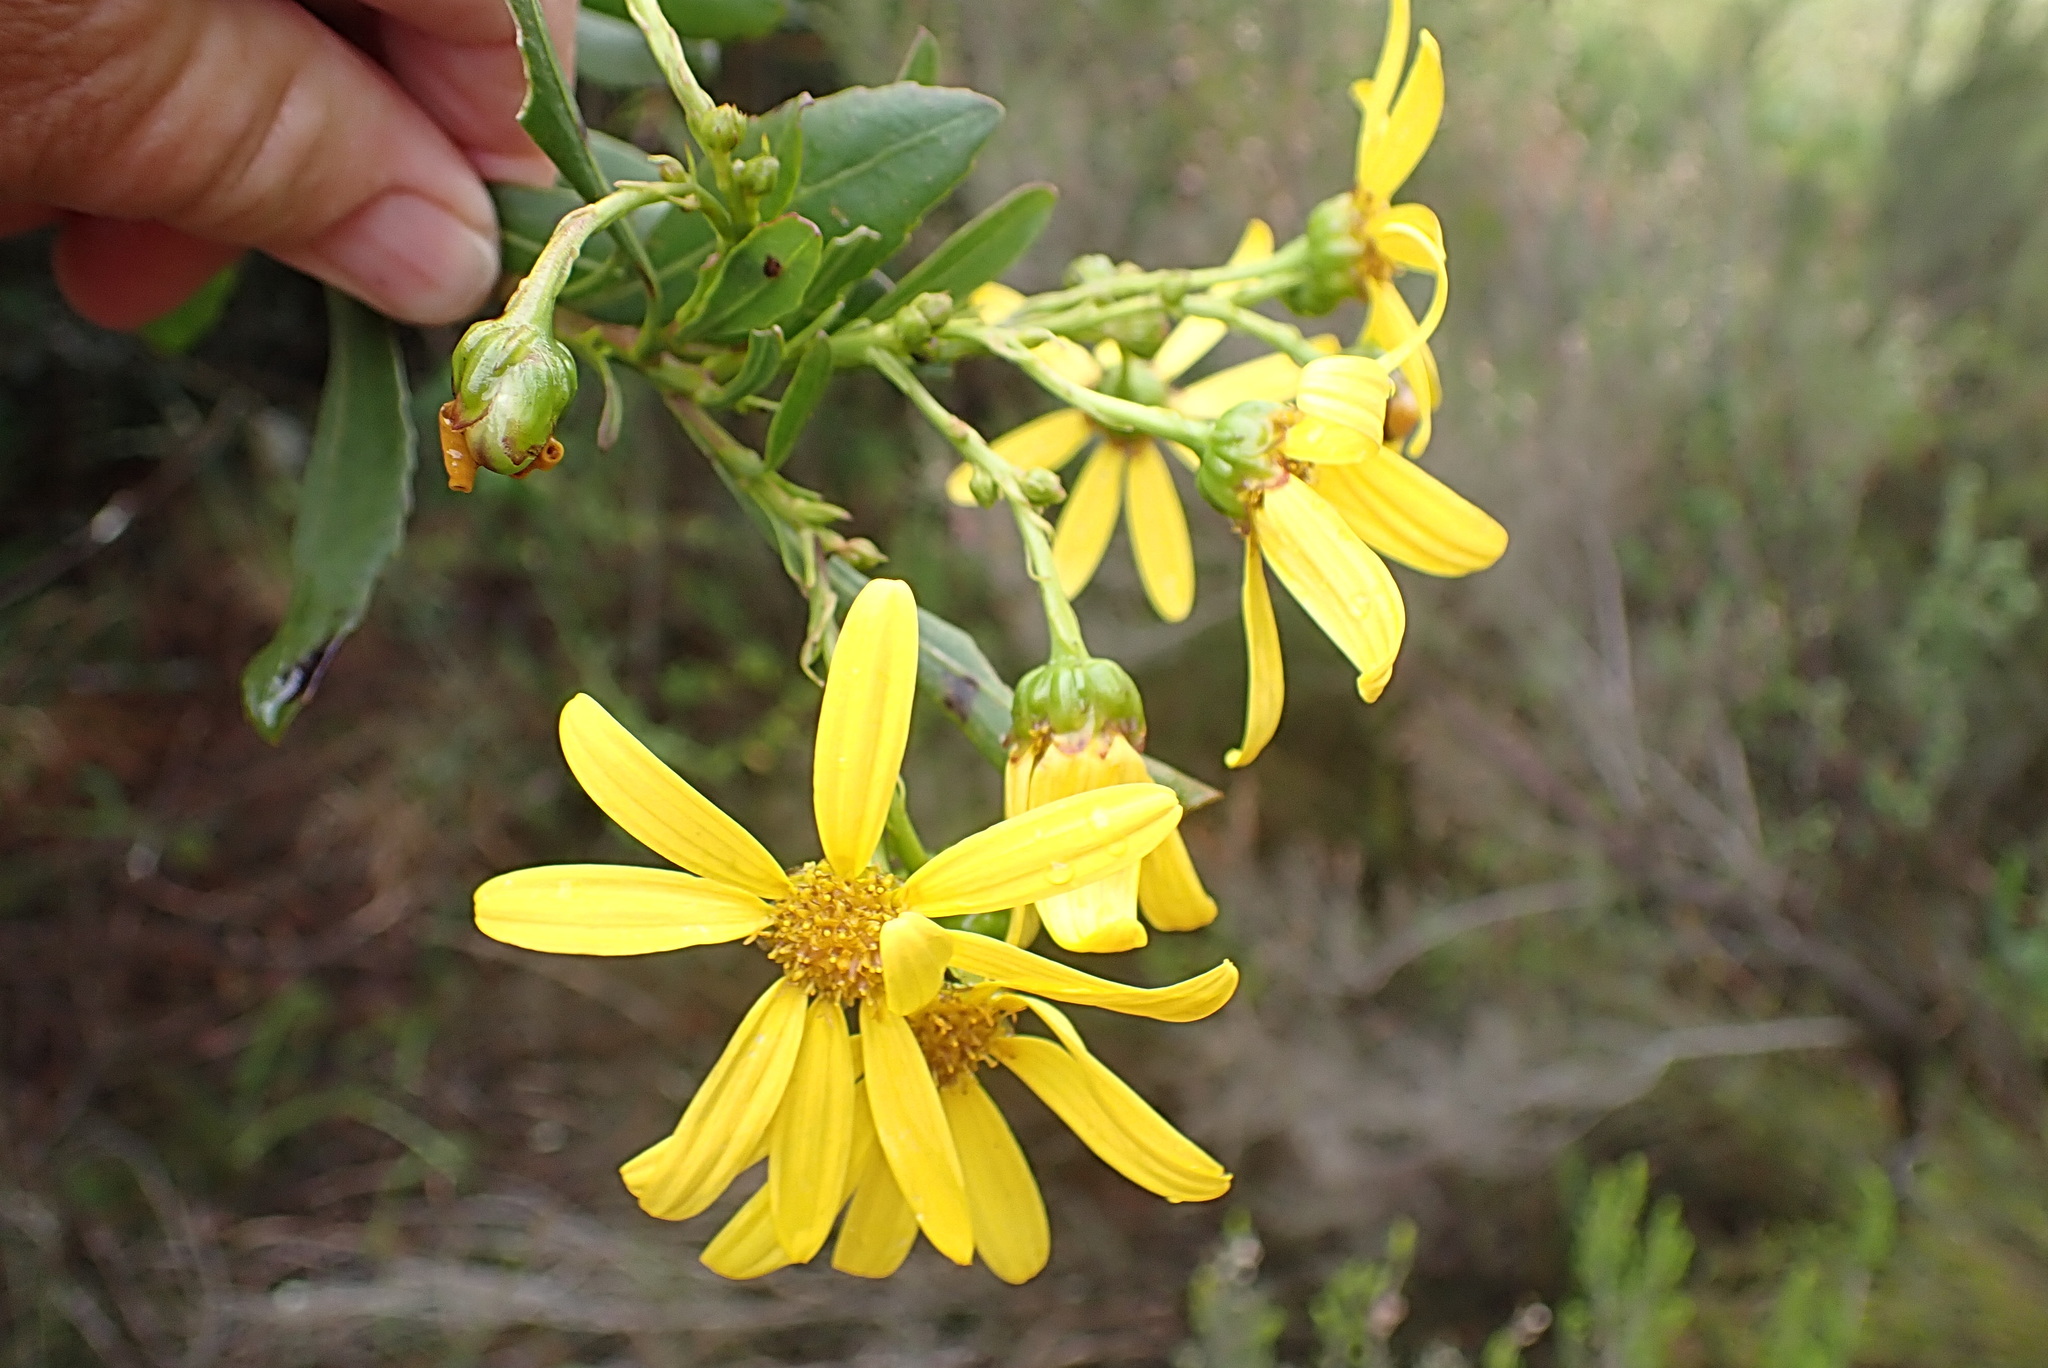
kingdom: Plantae
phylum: Tracheophyta
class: Magnoliopsida
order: Asterales
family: Asteraceae
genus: Osteospermum
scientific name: Osteospermum moniliferum
